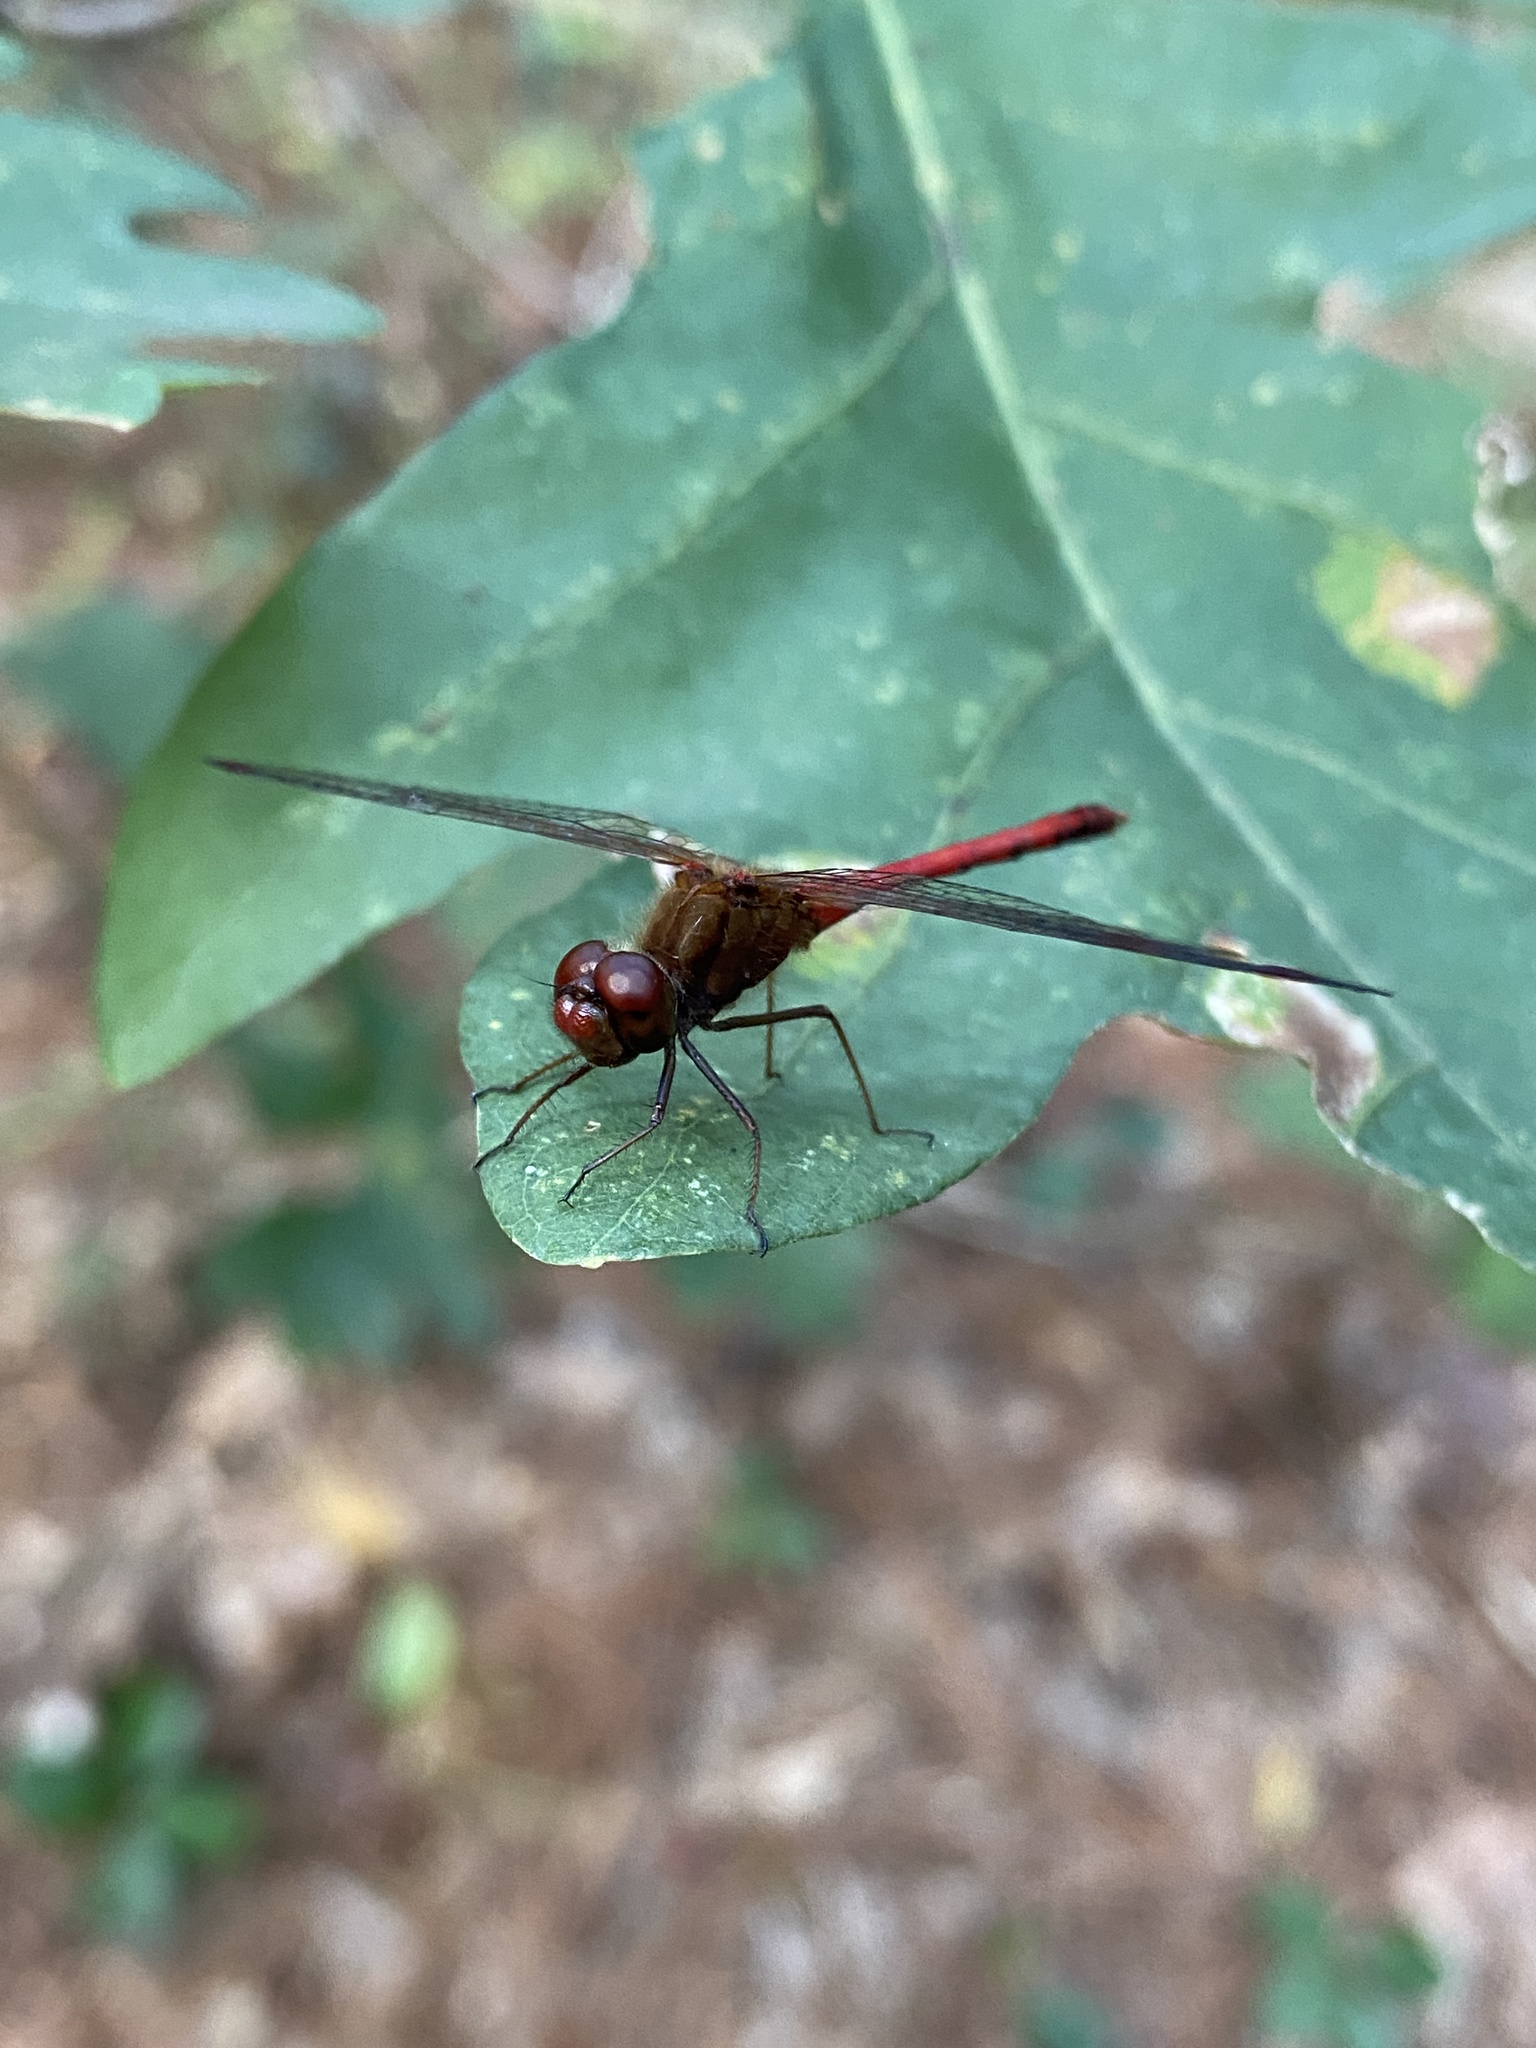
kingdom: Animalia
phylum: Arthropoda
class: Insecta
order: Odonata
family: Libellulidae
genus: Sympetrum
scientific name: Sympetrum vicinum
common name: Autumn meadowhawk
